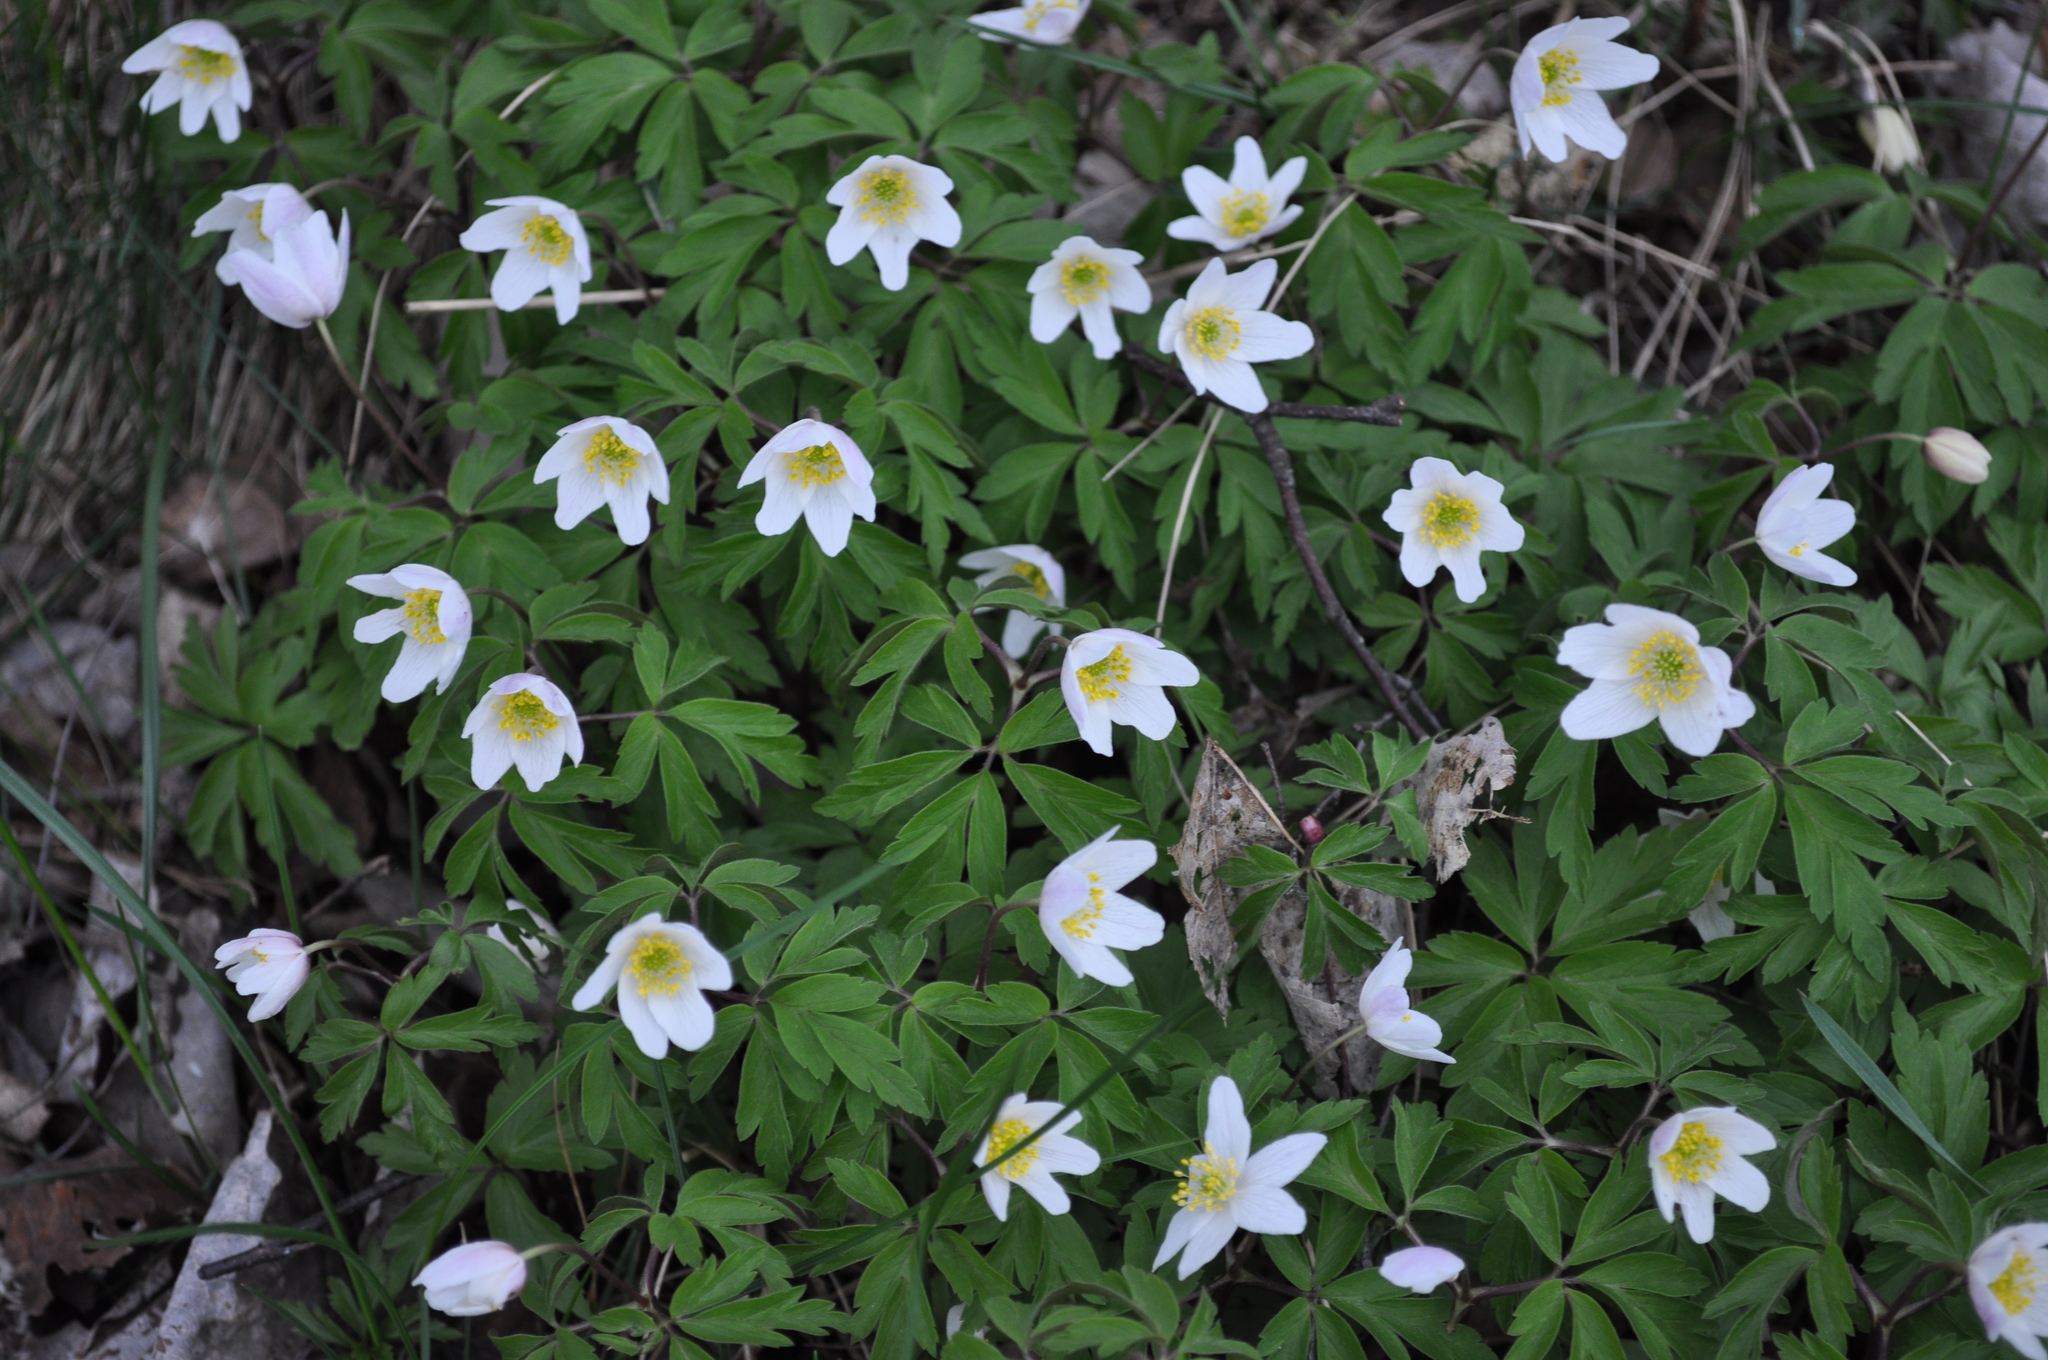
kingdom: Plantae
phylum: Tracheophyta
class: Magnoliopsida
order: Ranunculales
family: Ranunculaceae
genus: Anemone
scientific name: Anemone nemorosa
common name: Wood anemone
